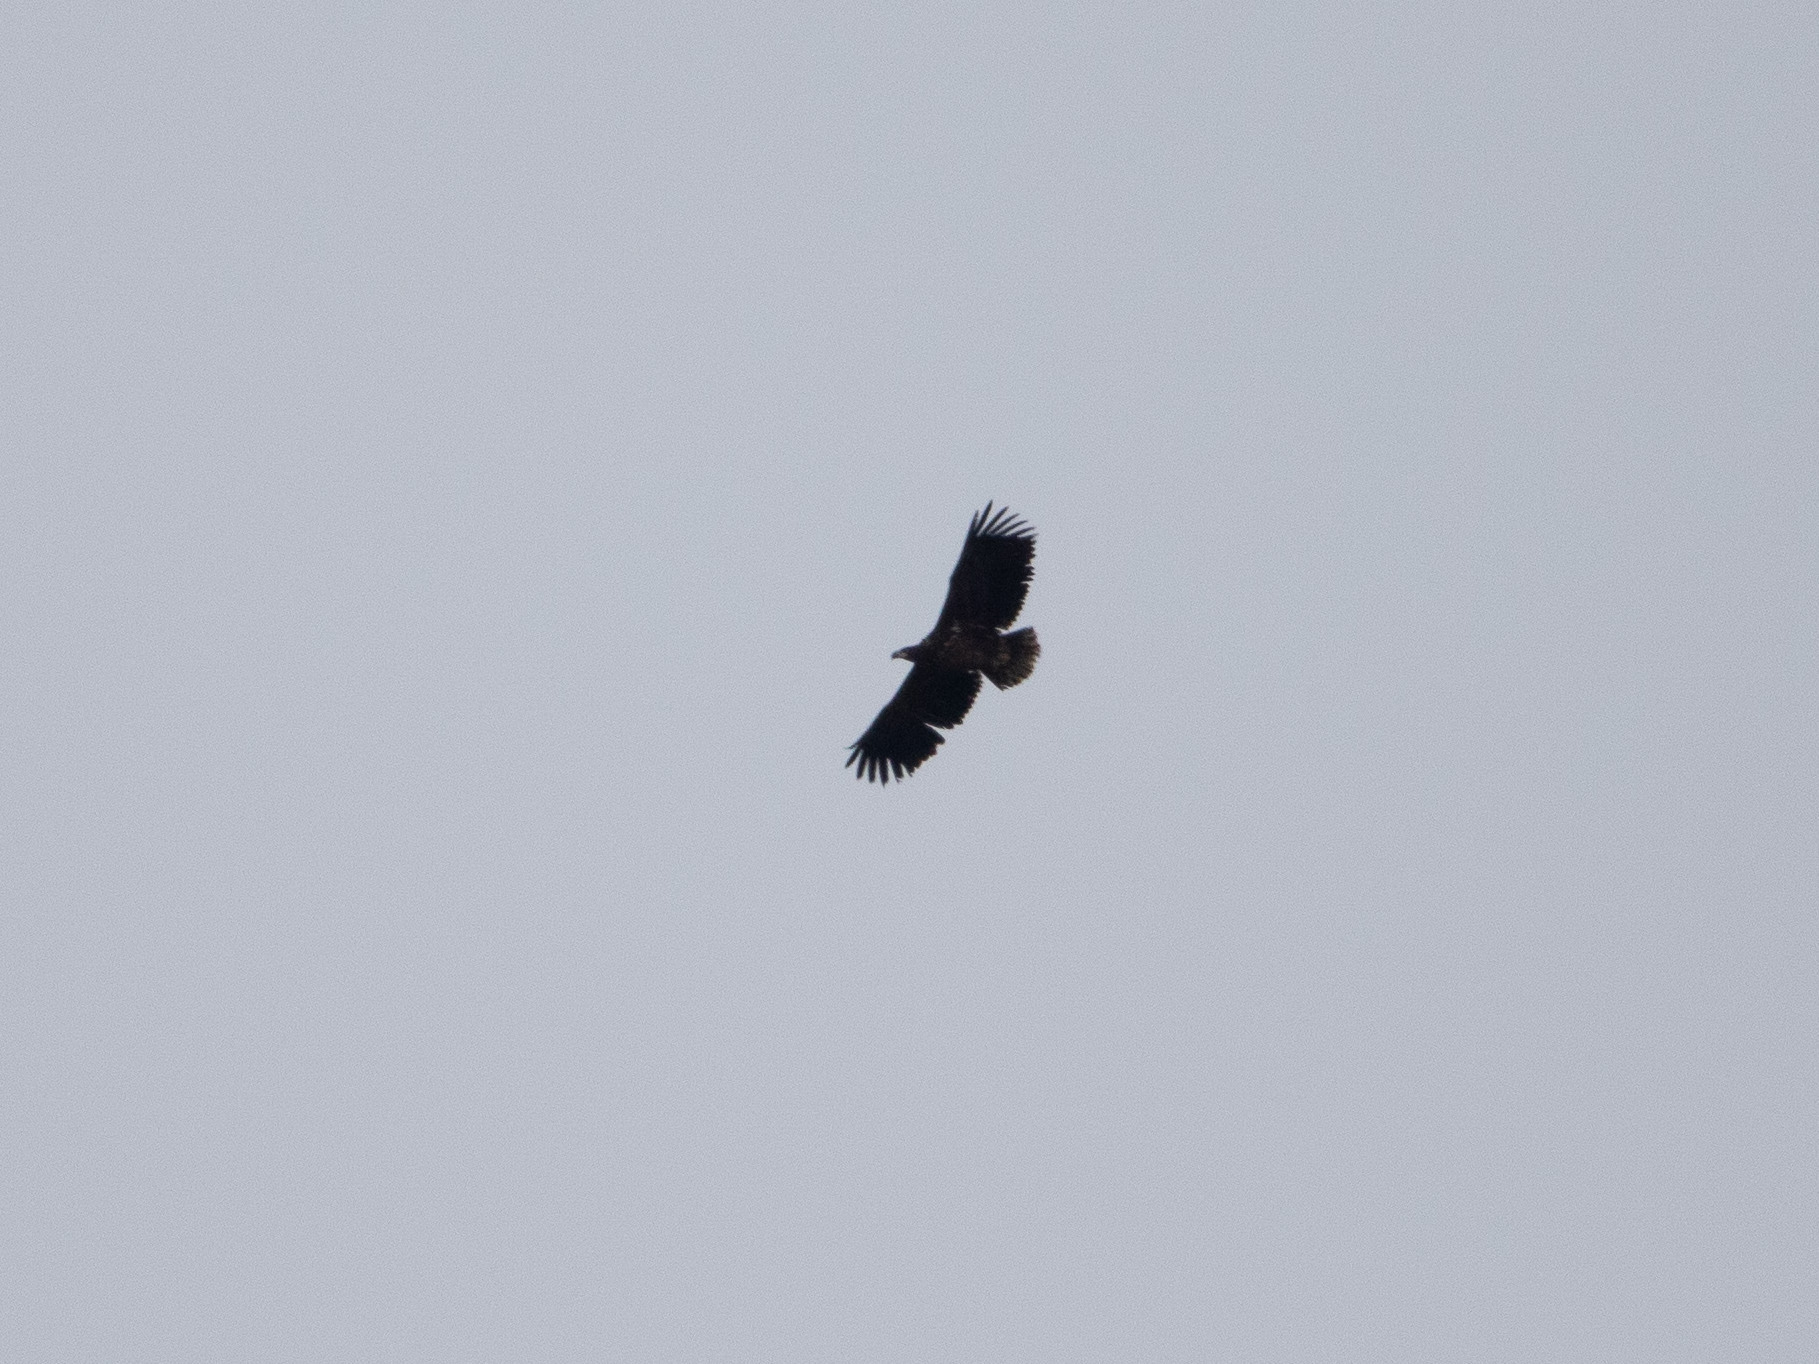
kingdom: Animalia
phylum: Chordata
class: Aves
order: Accipitriformes
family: Accipitridae
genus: Haliaeetus
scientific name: Haliaeetus albicilla
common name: White-tailed eagle
